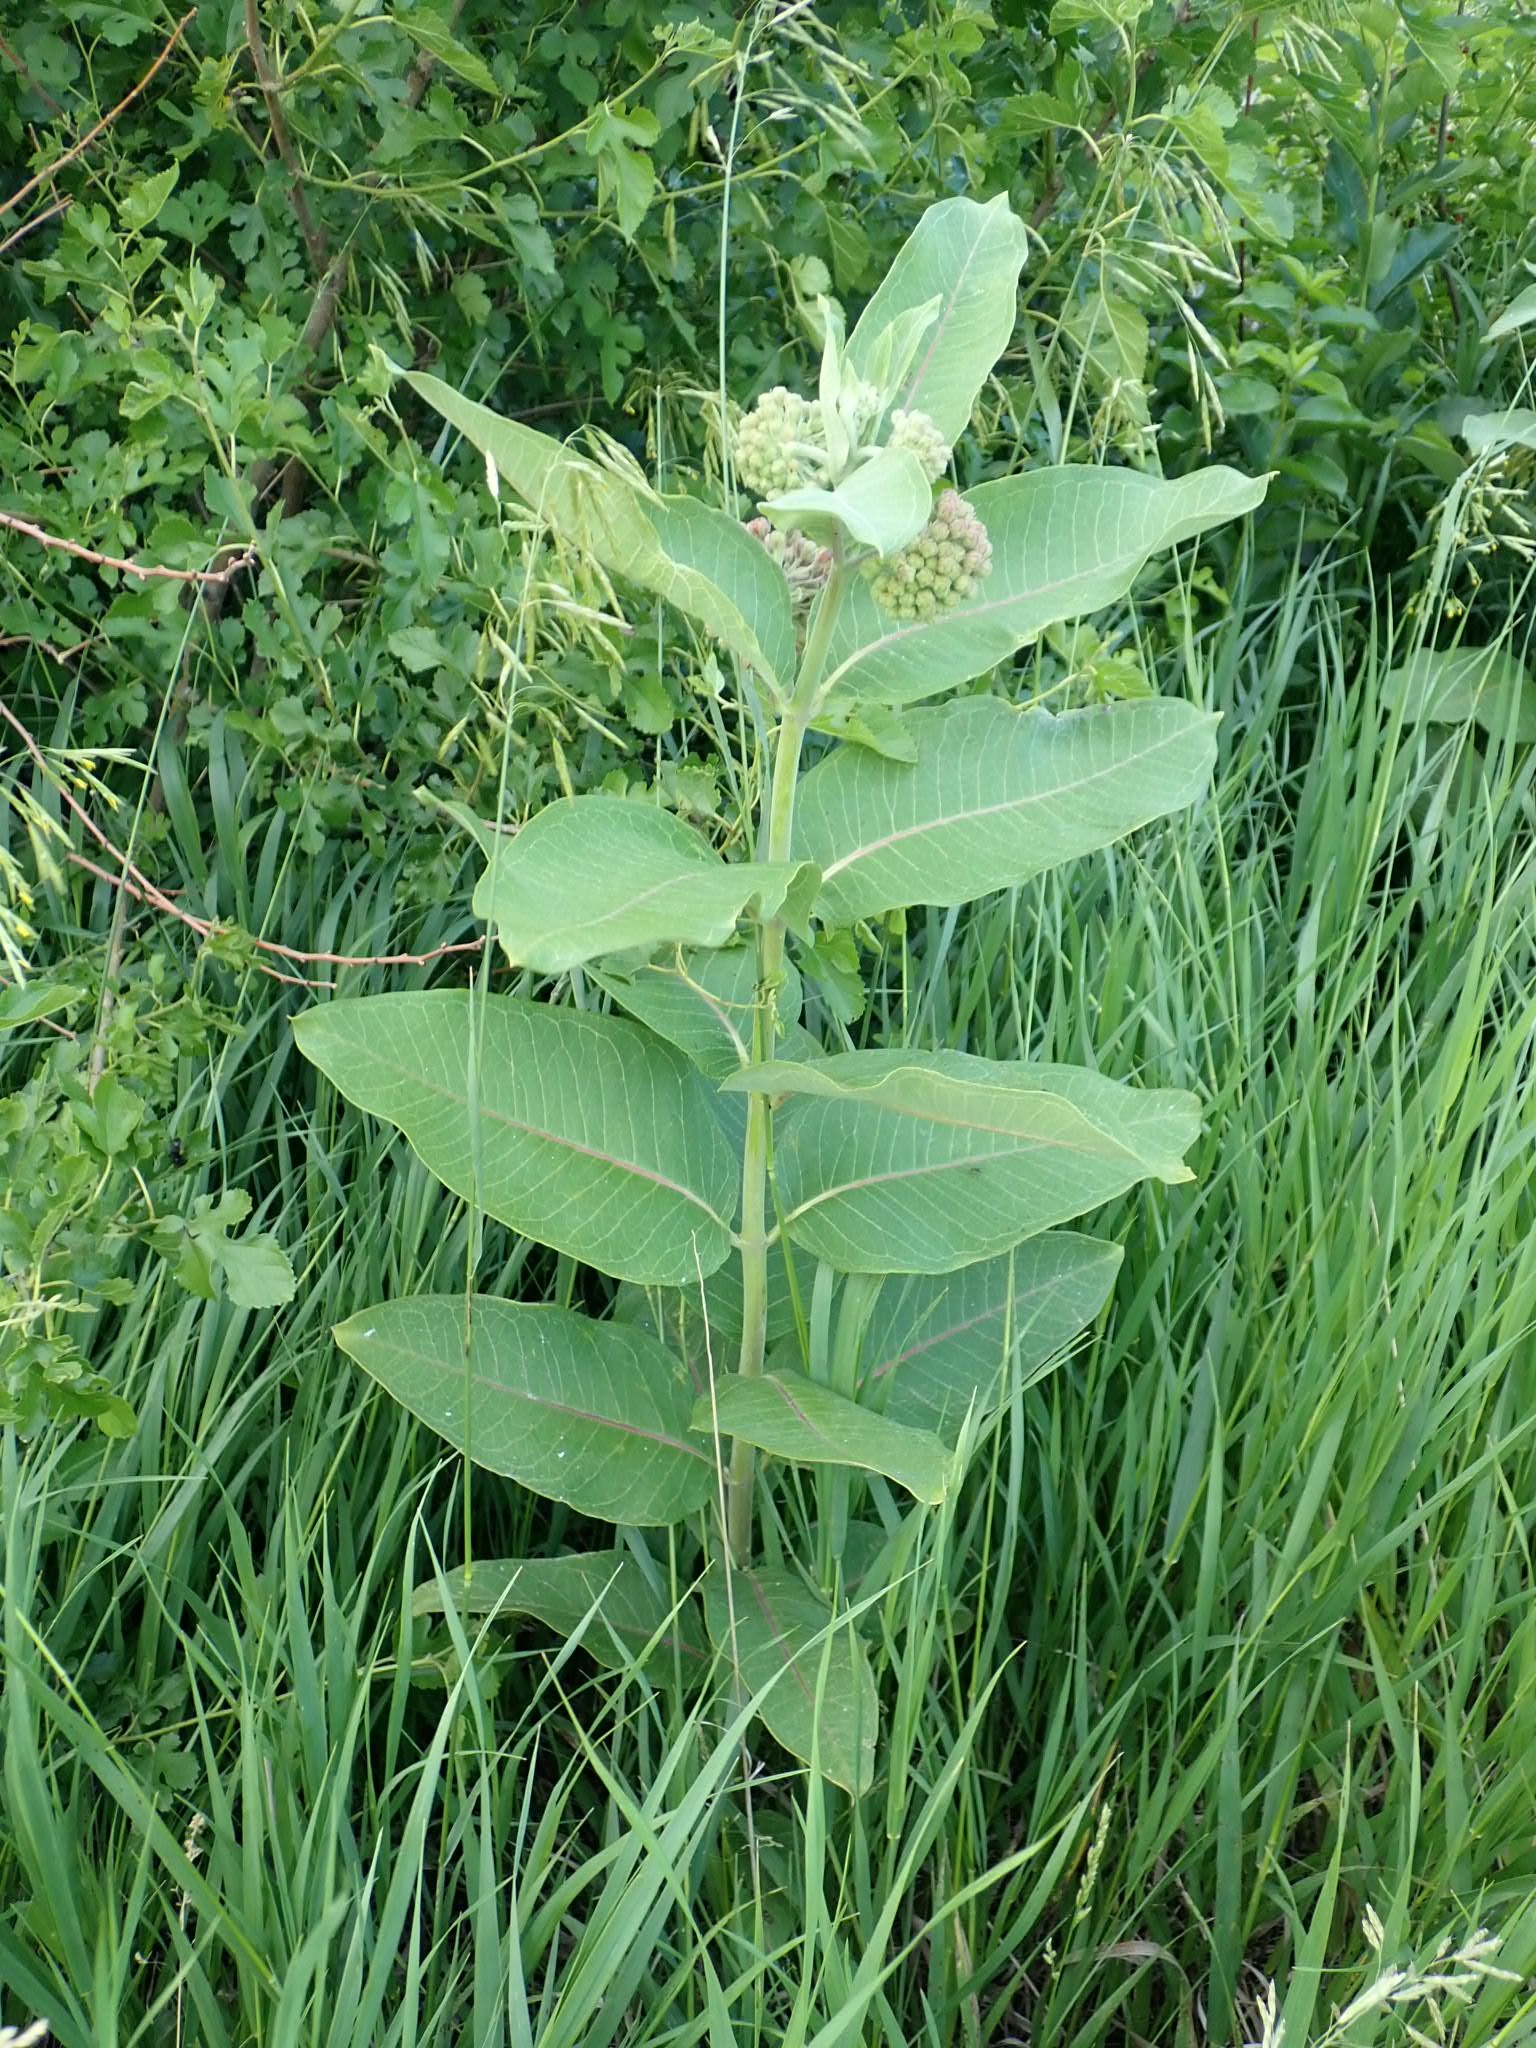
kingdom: Plantae
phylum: Tracheophyta
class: Magnoliopsida
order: Gentianales
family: Apocynaceae
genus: Asclepias
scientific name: Asclepias syriaca
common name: Common milkweed
